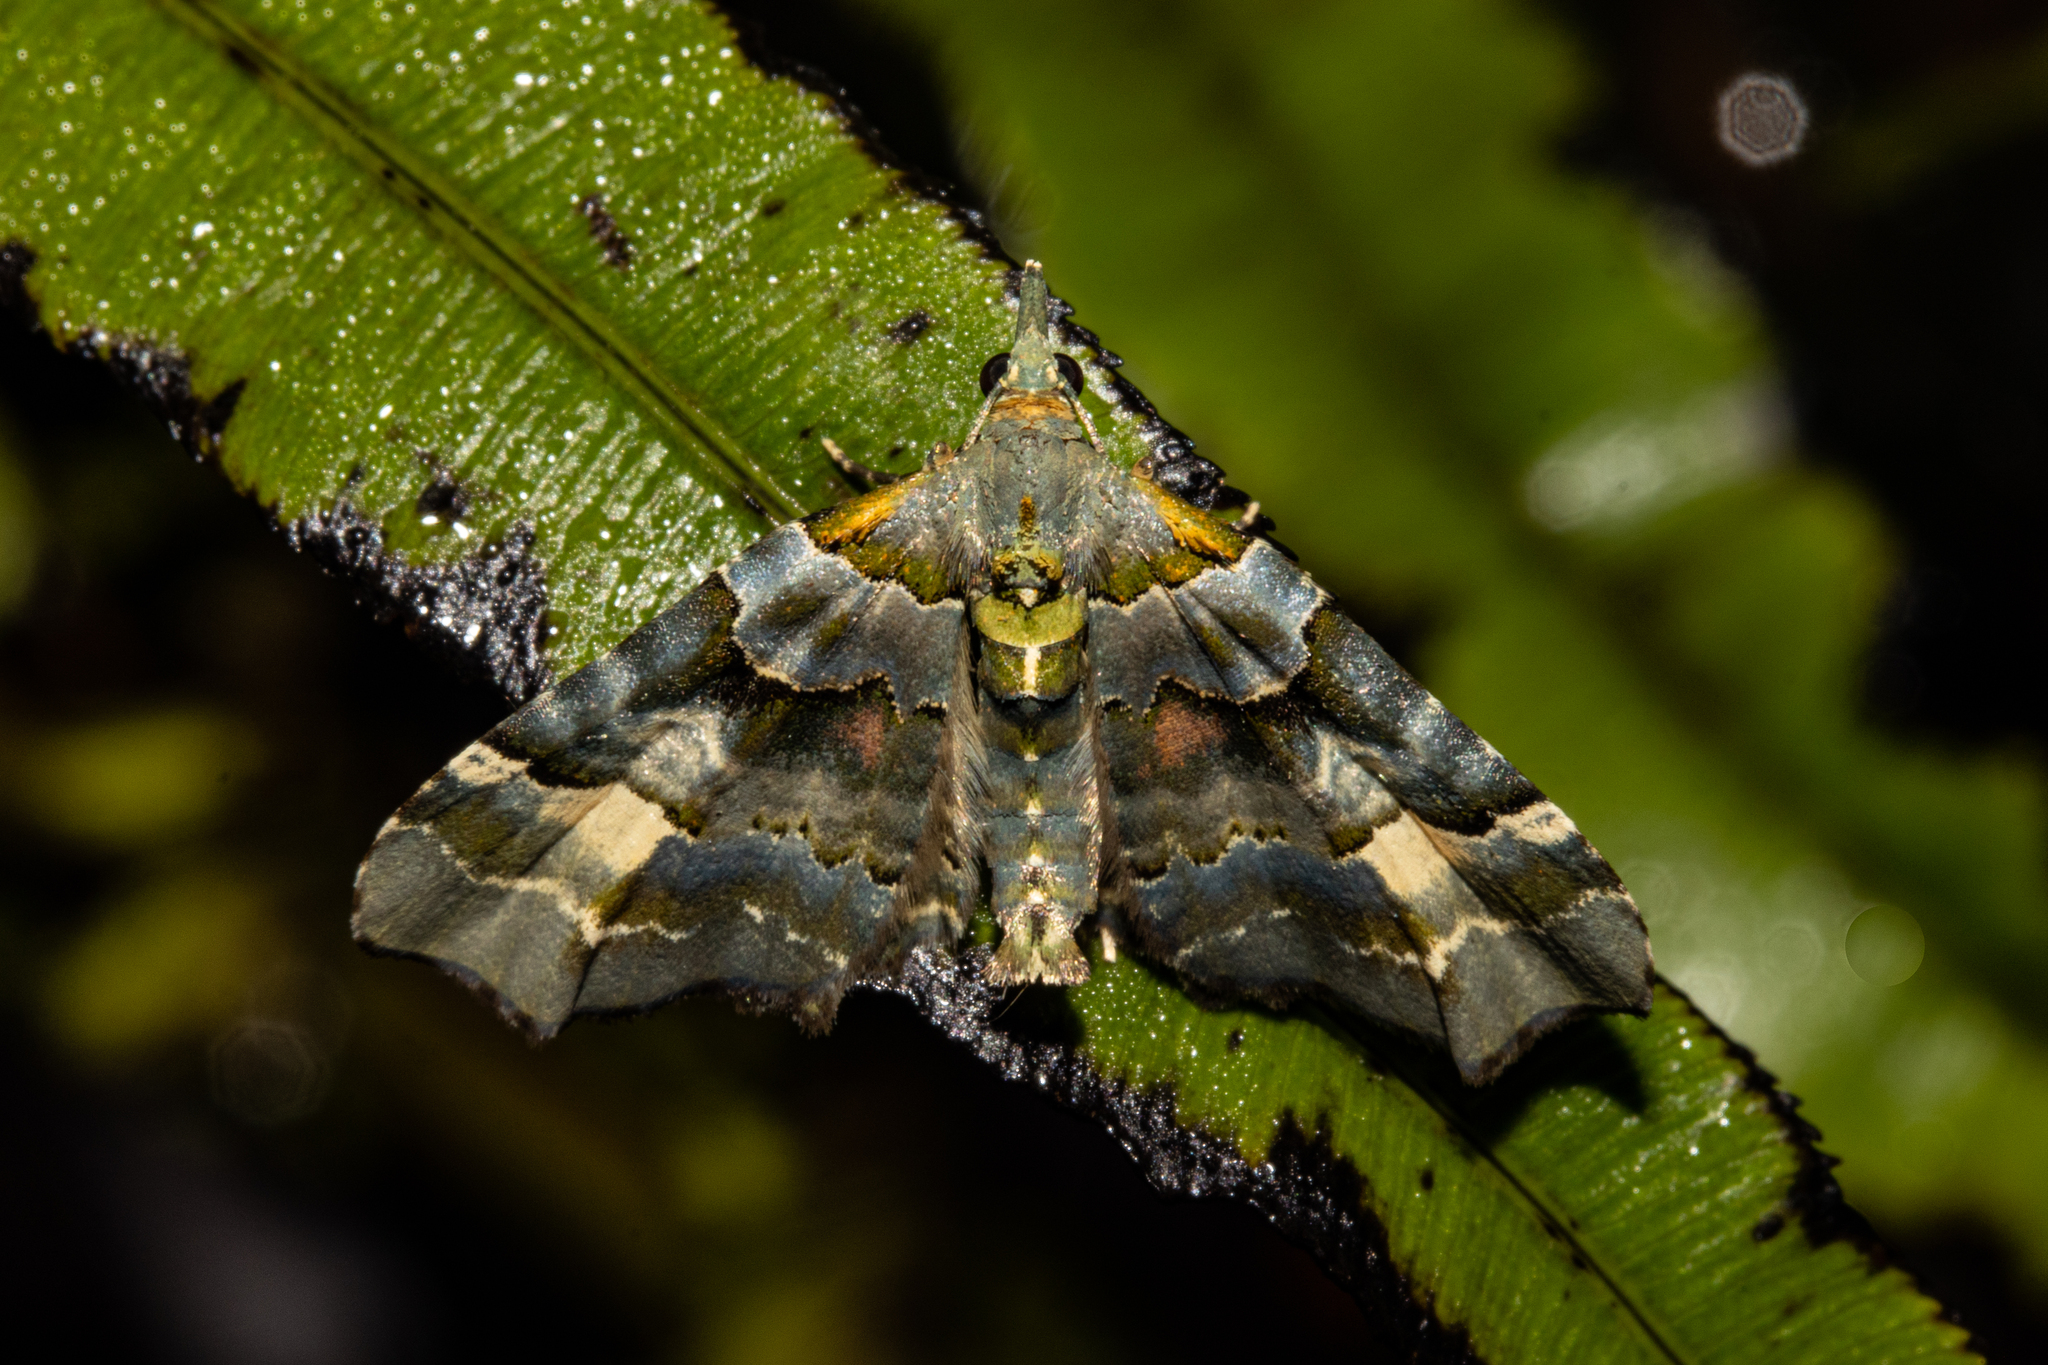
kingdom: Animalia
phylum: Arthropoda
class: Insecta
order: Lepidoptera
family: Geometridae
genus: Elvia
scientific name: Elvia glaucata
